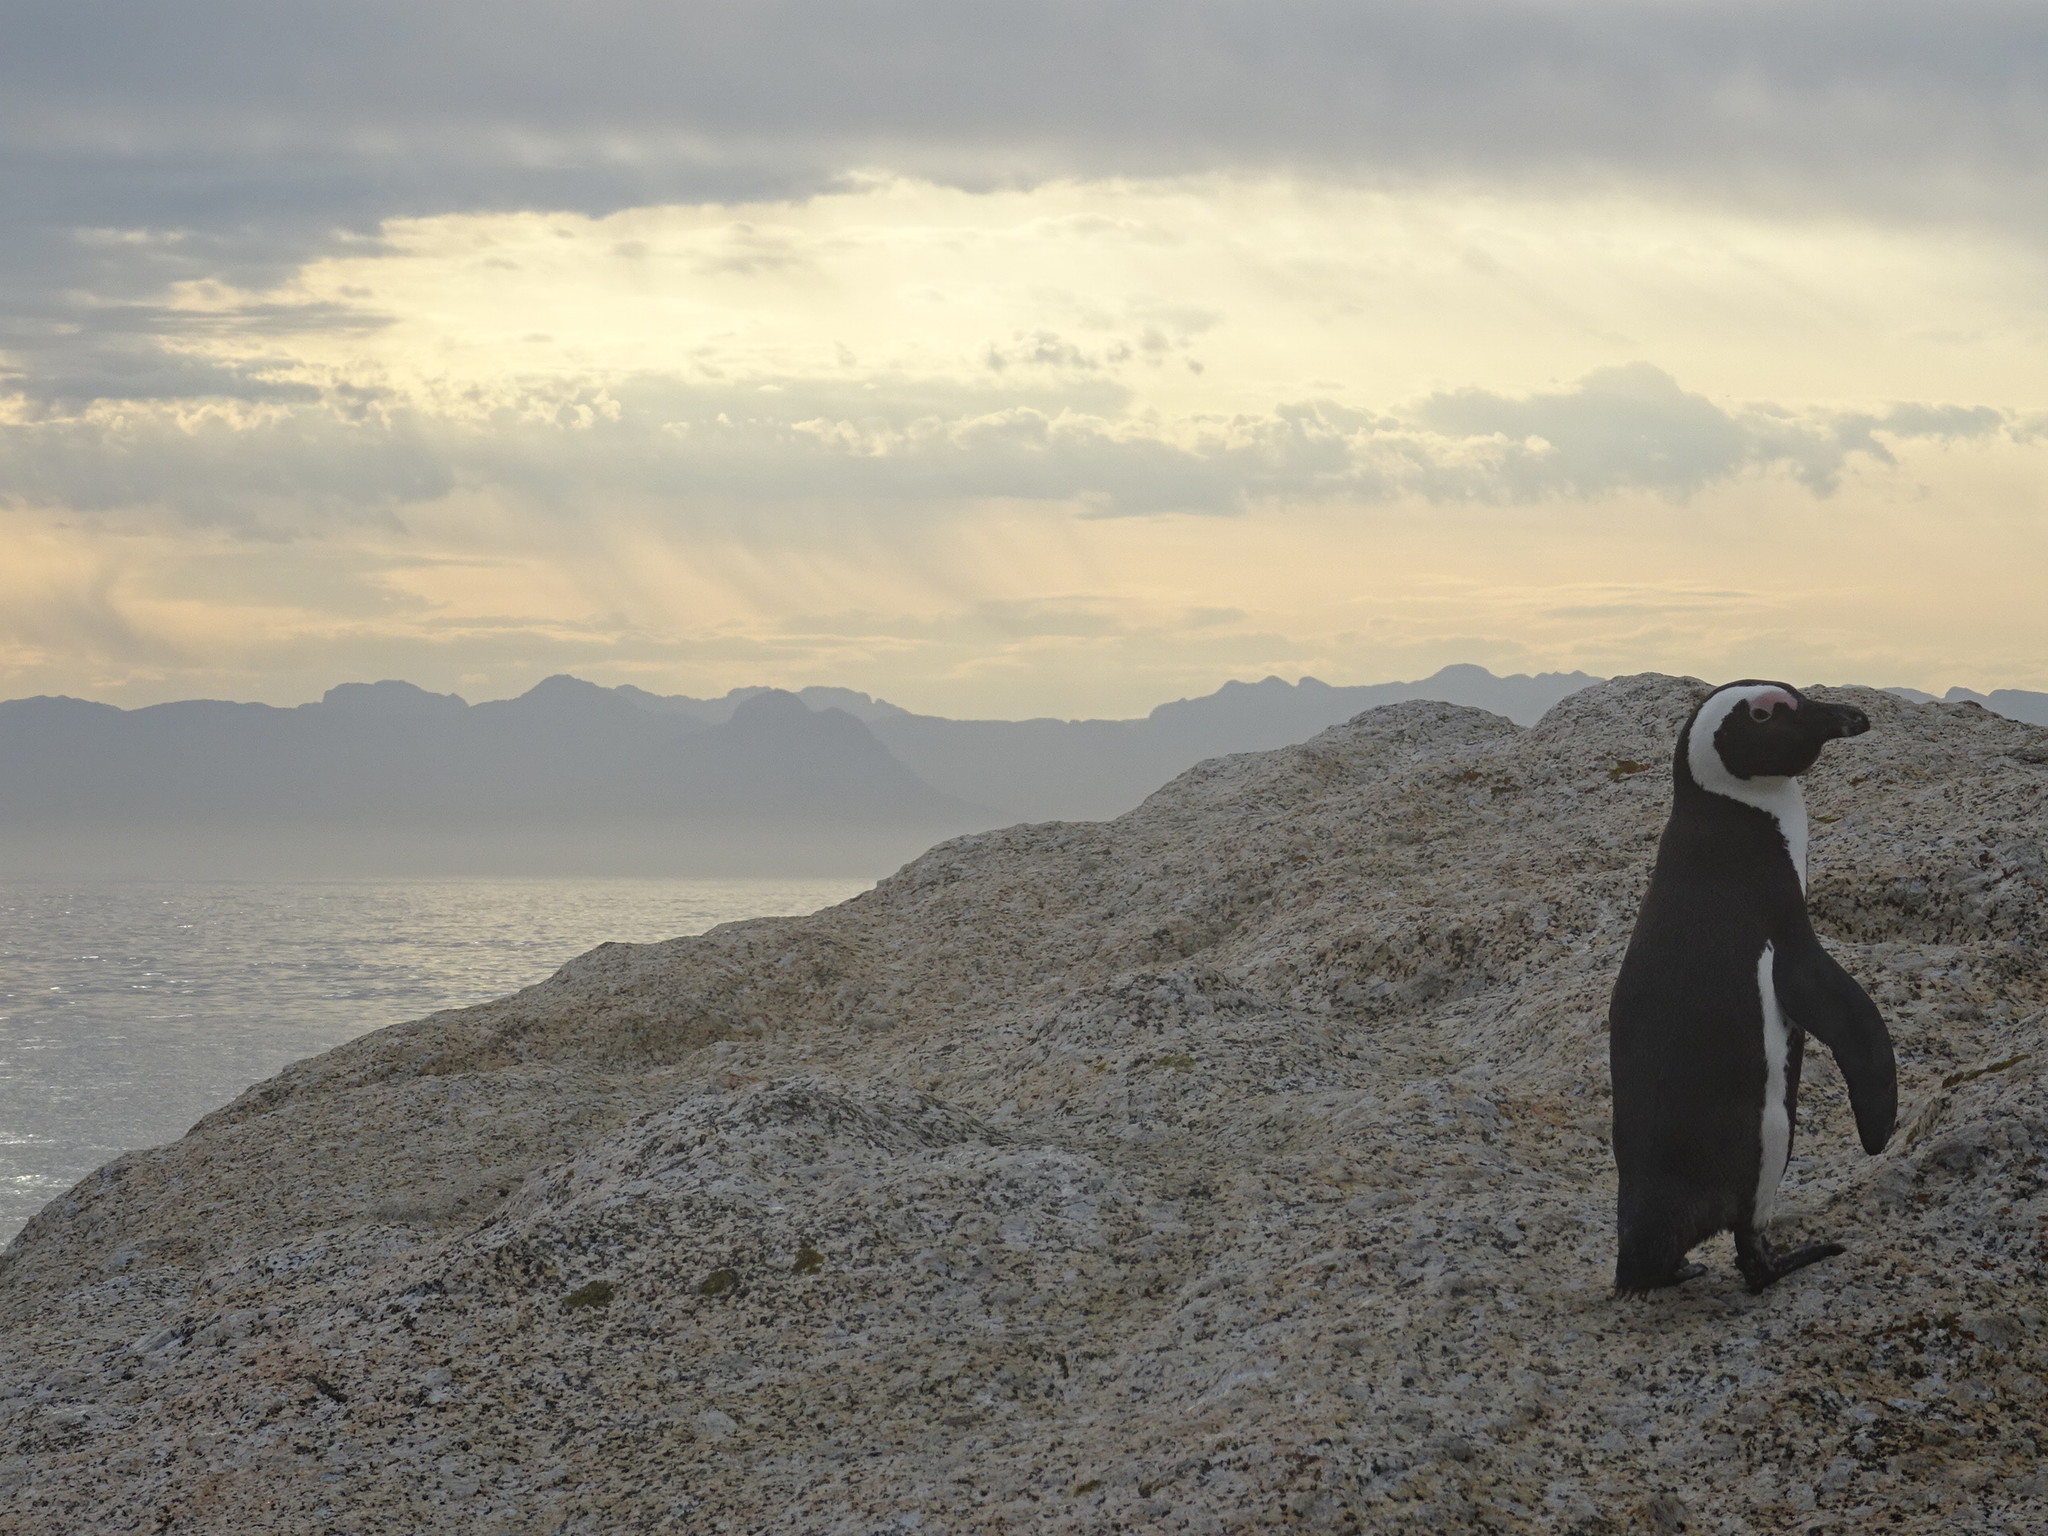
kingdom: Animalia
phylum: Chordata
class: Aves
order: Sphenisciformes
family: Spheniscidae
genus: Spheniscus
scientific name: Spheniscus demersus
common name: African penguin
